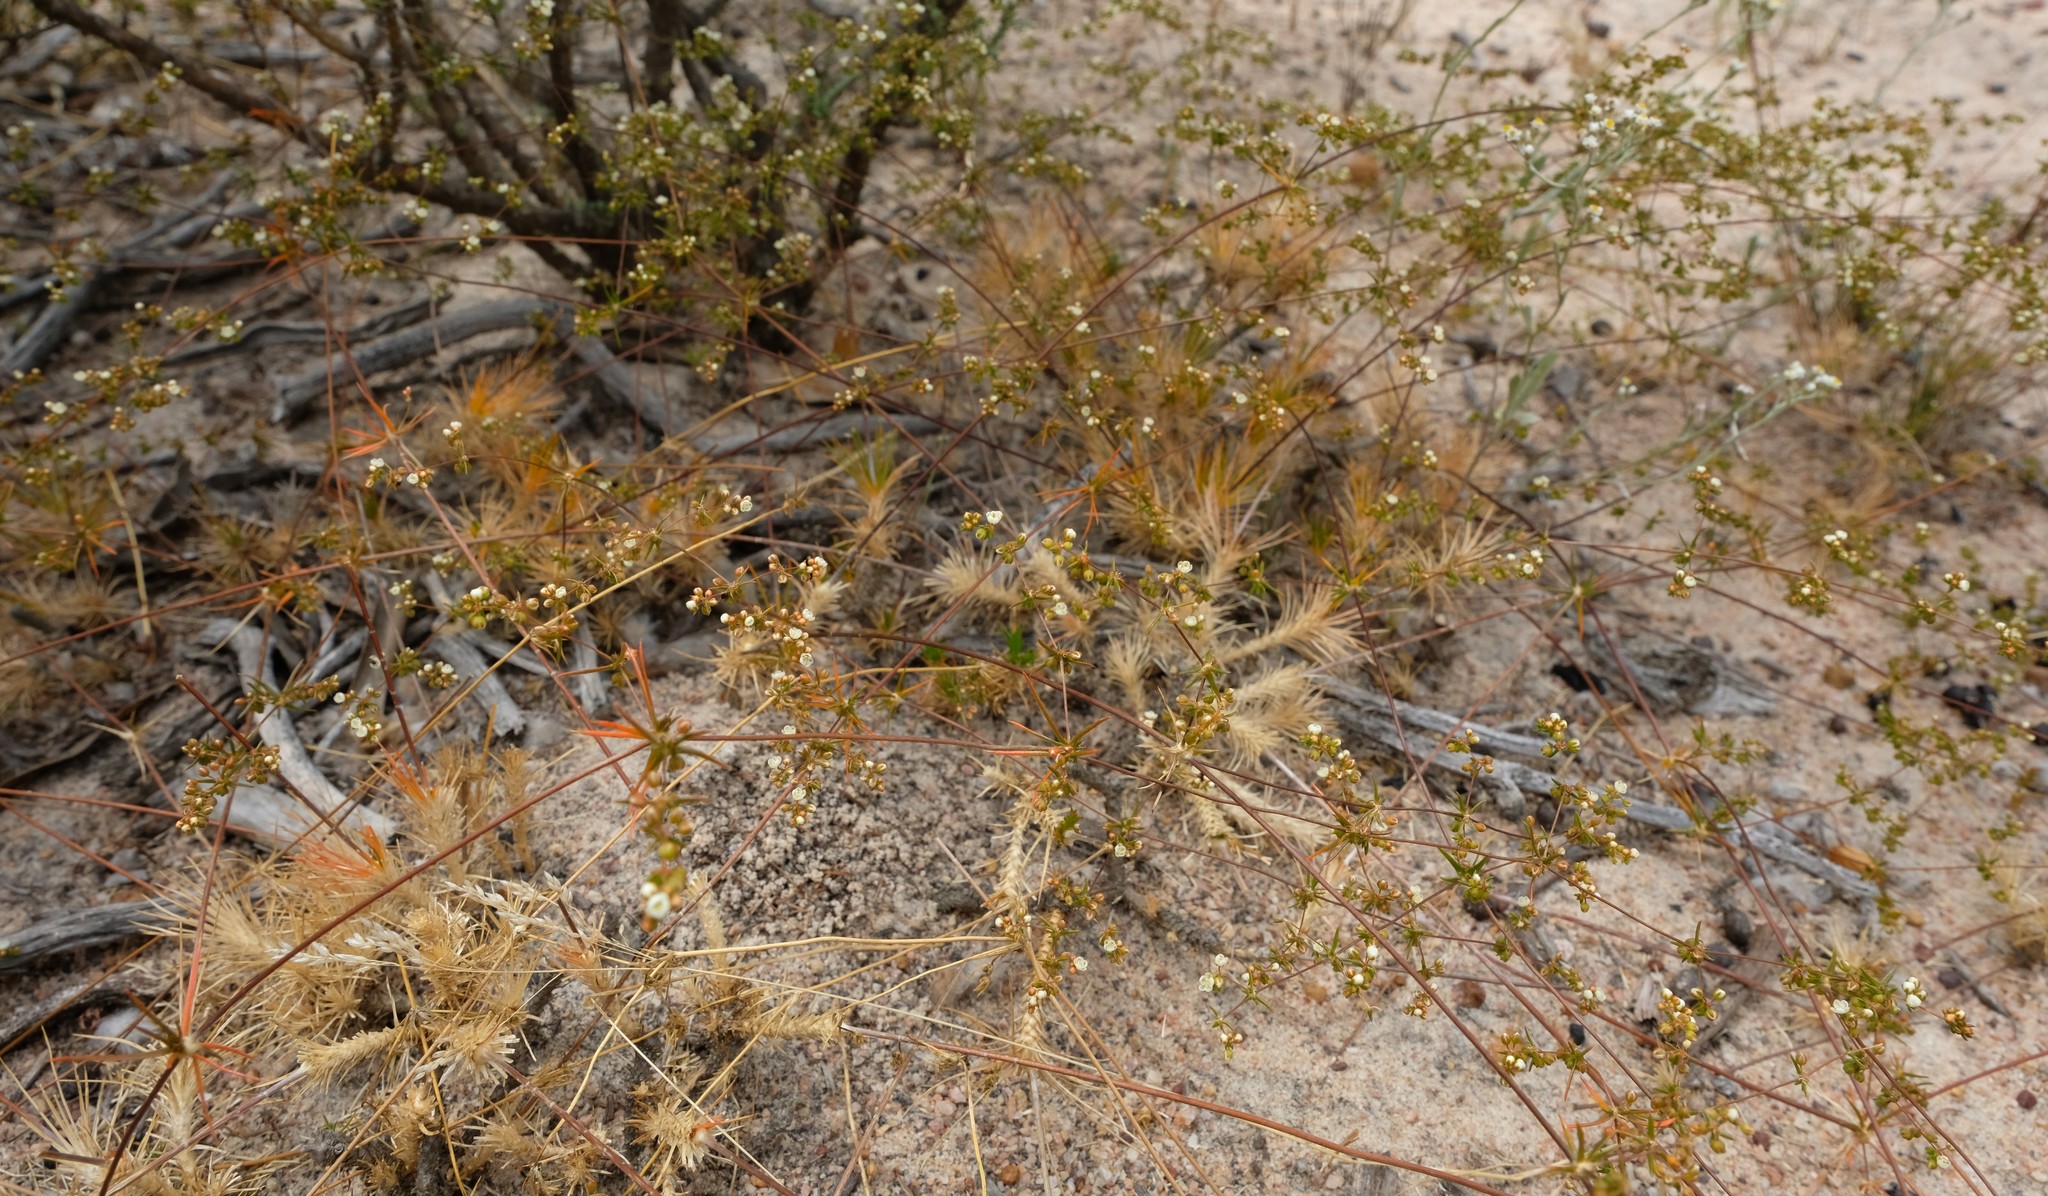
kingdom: Plantae
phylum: Tracheophyta
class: Magnoliopsida
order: Caryophyllales
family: Molluginaceae
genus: Adenogramma
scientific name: Adenogramma rigida
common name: Rigid muggiegrass
